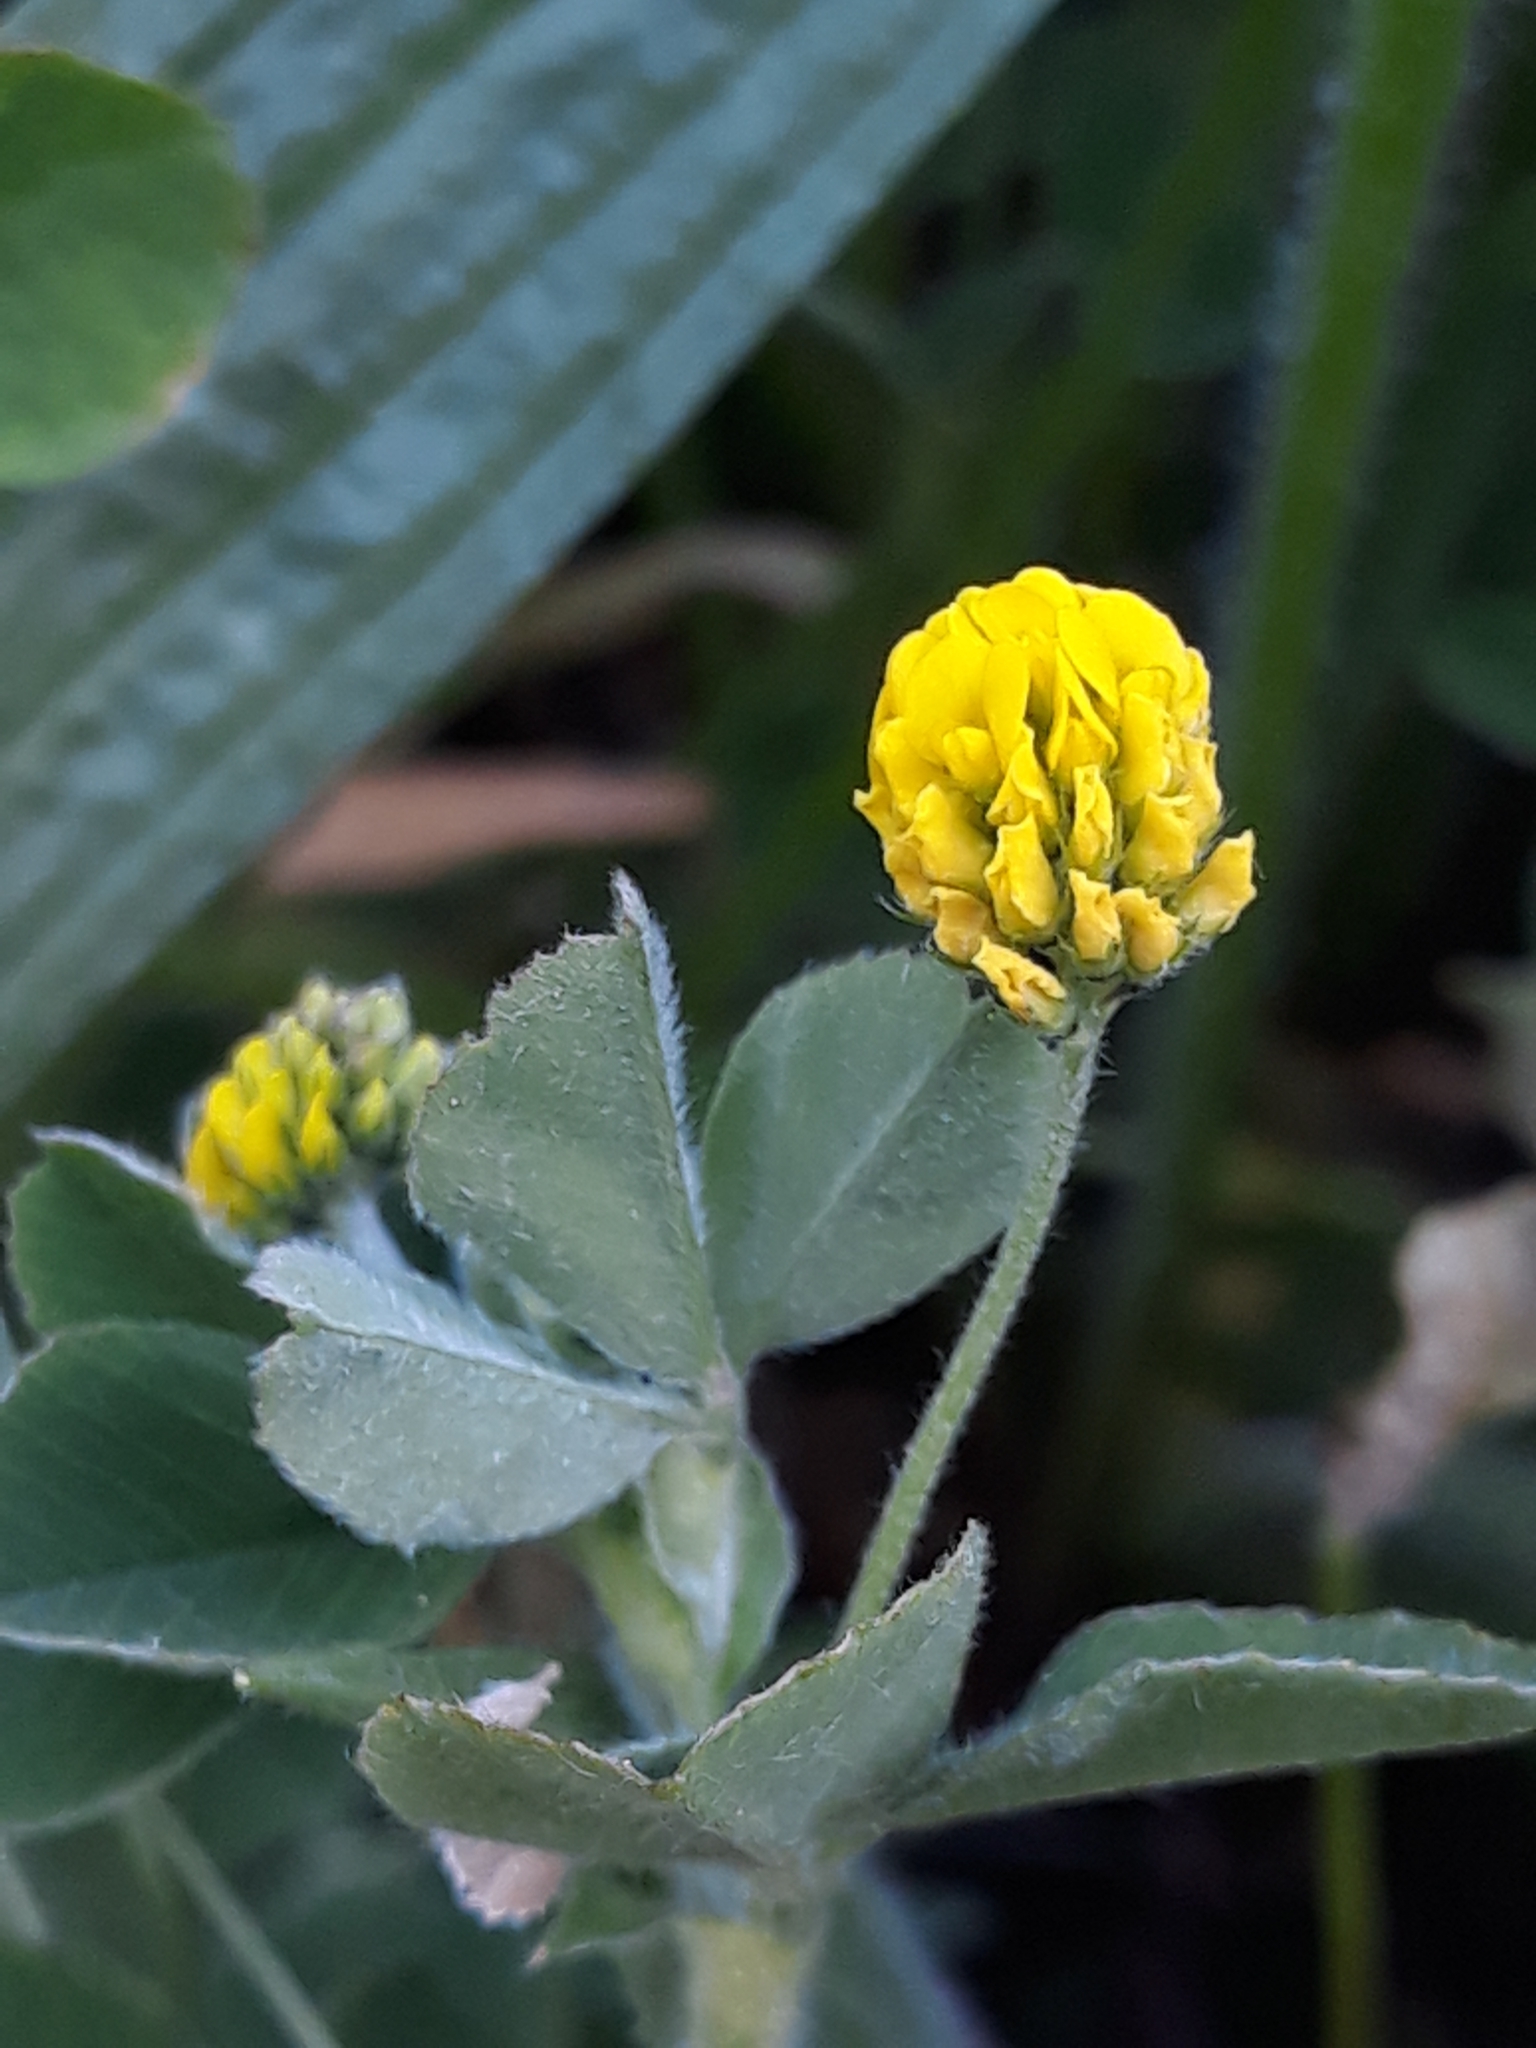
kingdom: Plantae
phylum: Tracheophyta
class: Magnoliopsida
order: Fabales
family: Fabaceae
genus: Medicago
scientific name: Medicago lupulina
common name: Black medick
